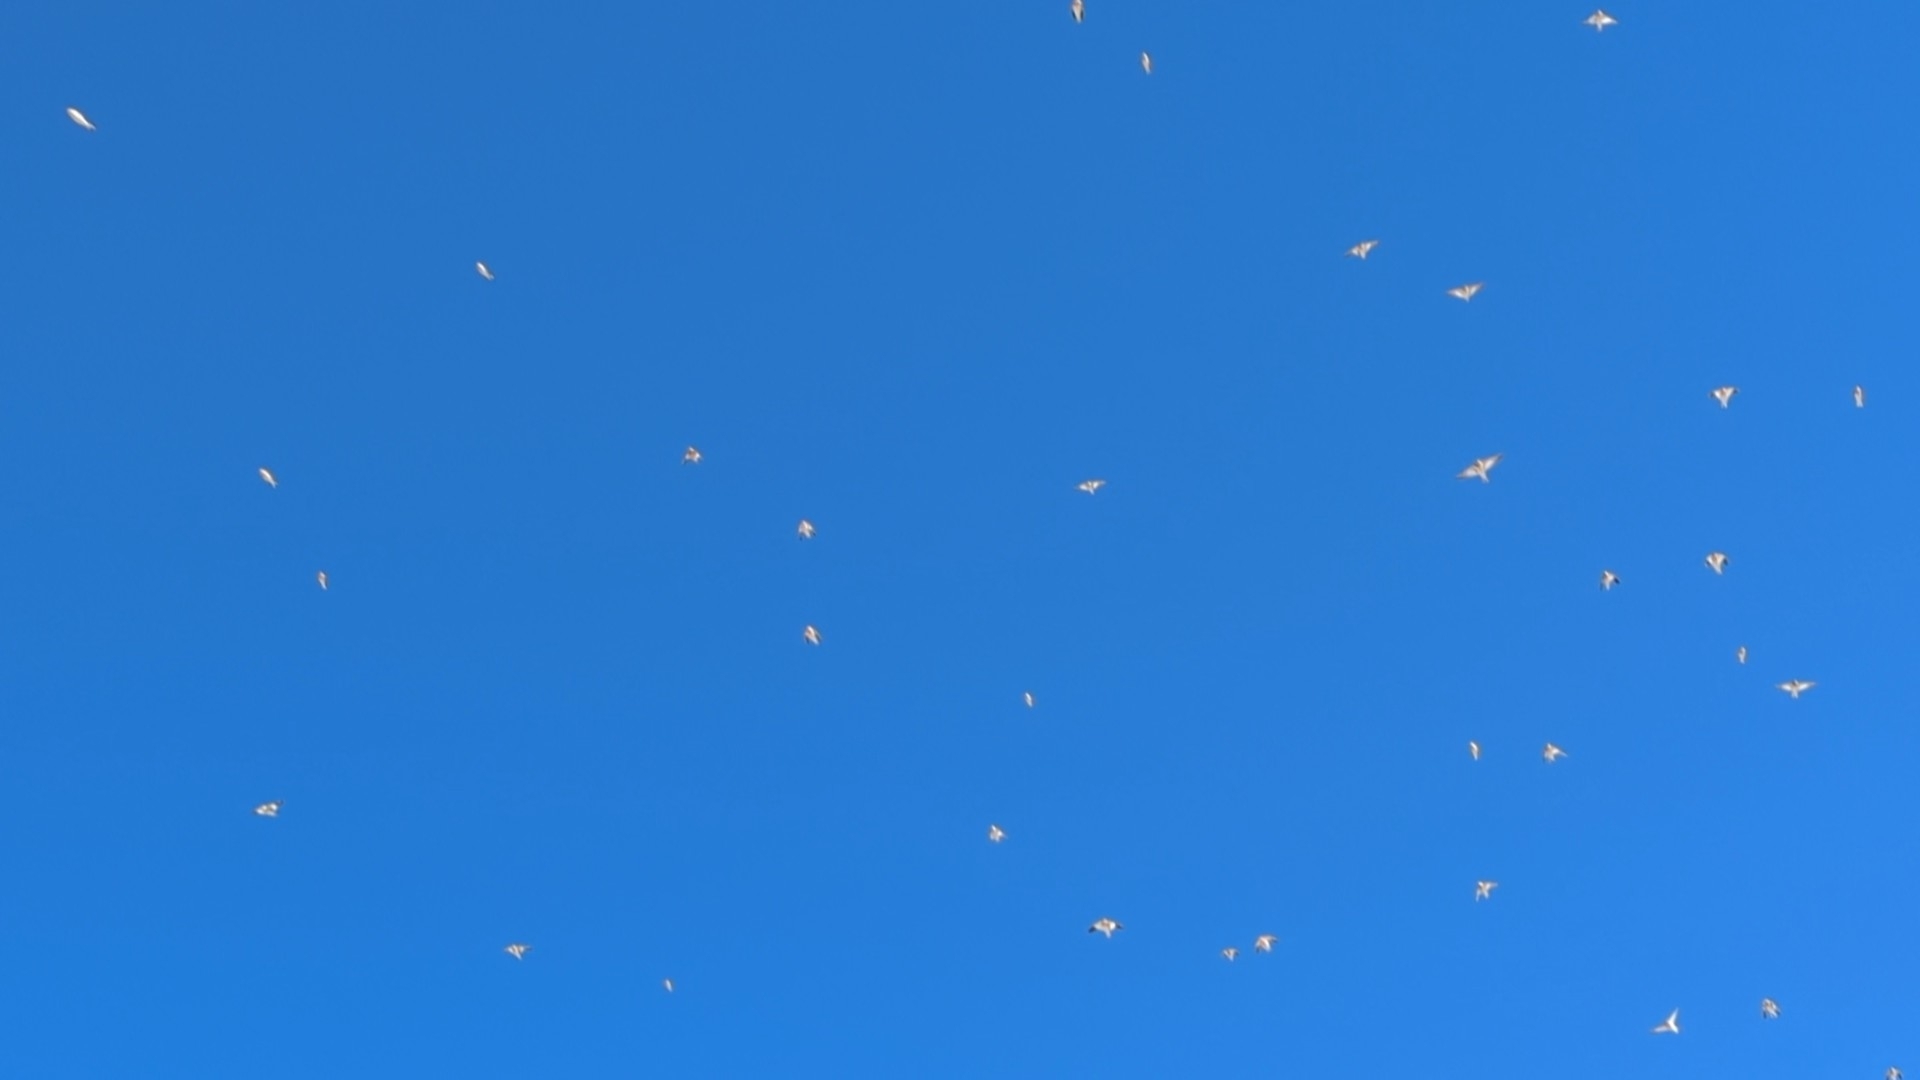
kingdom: Animalia
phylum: Chordata
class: Aves
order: Passeriformes
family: Calcariidae
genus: Plectrophenax
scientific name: Plectrophenax nivalis
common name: Snow bunting
